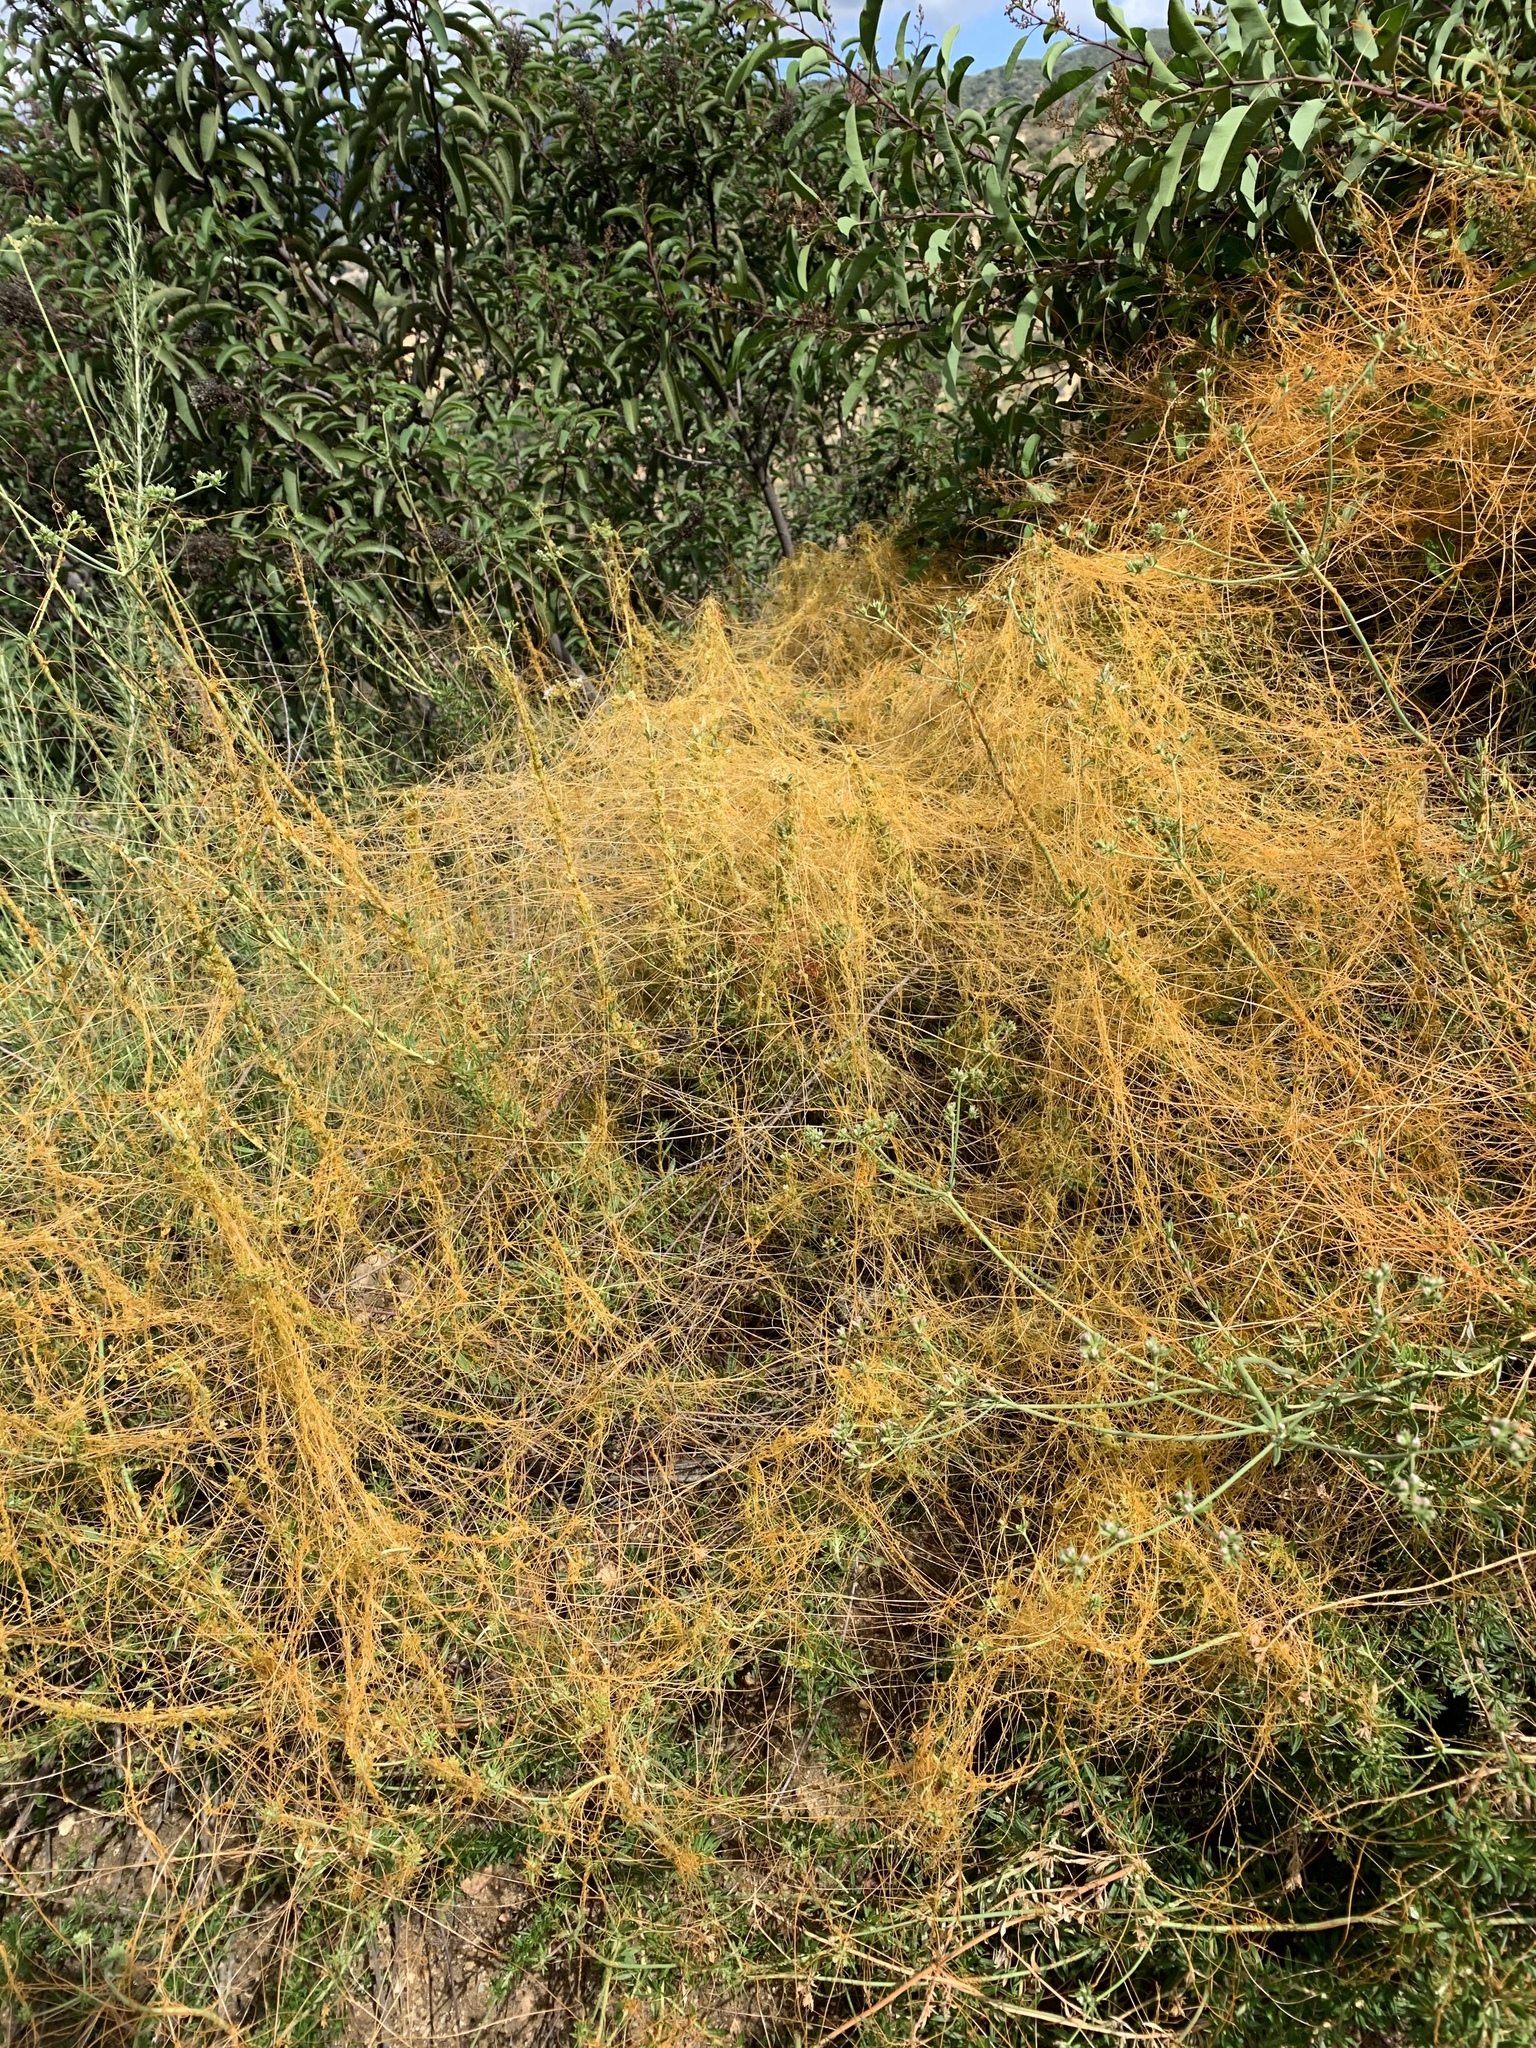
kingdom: Plantae
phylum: Tracheophyta
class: Magnoliopsida
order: Solanales
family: Convolvulaceae
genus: Cuscuta
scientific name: Cuscuta californica
